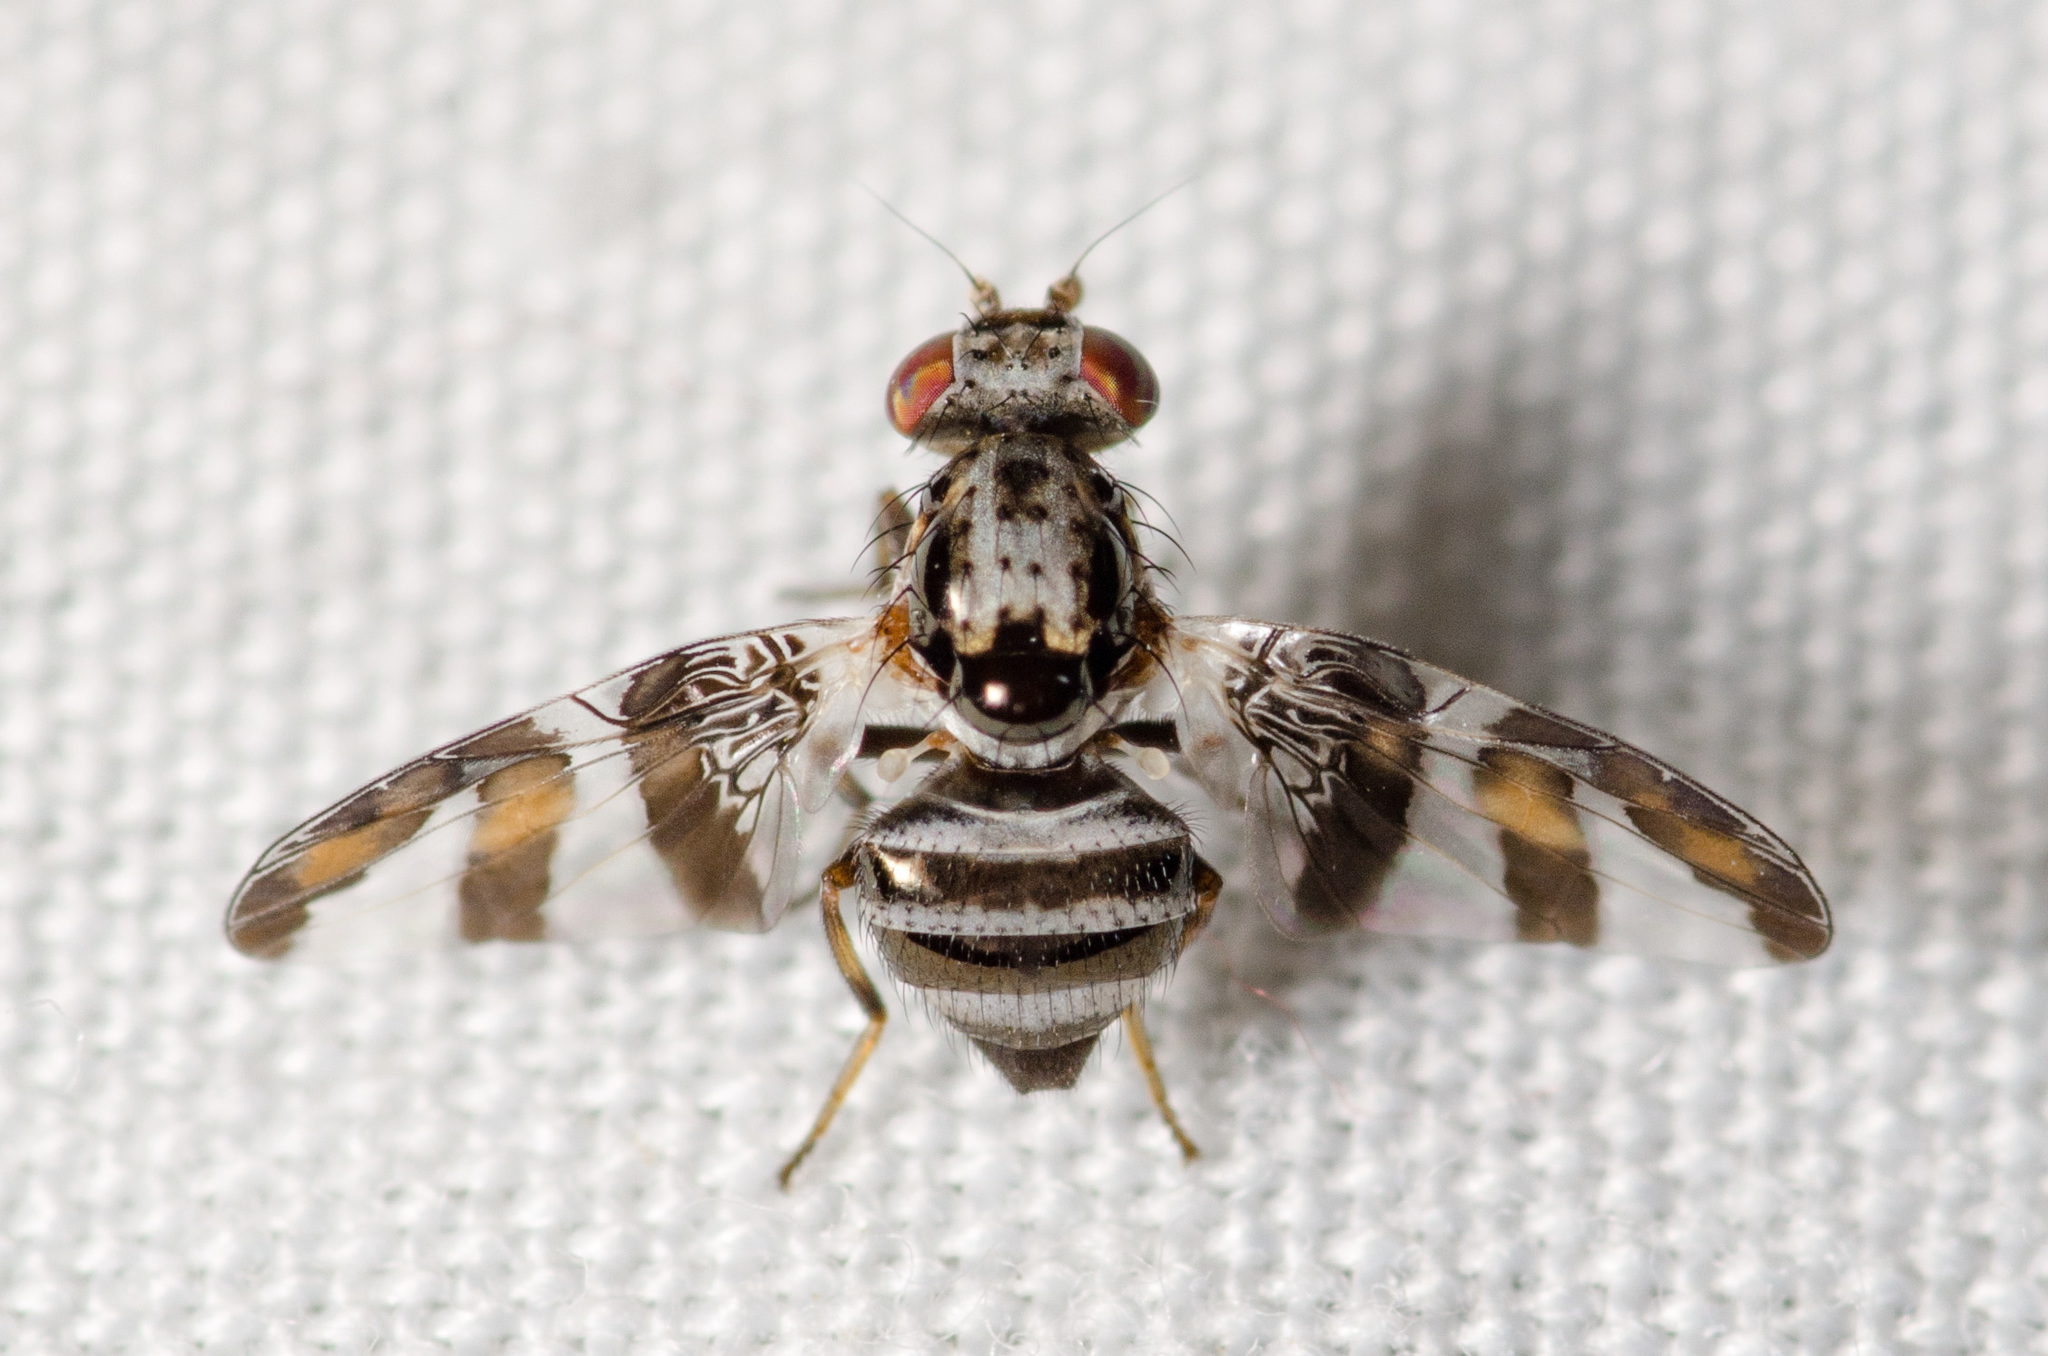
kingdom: Animalia
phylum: Arthropoda
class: Insecta
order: Diptera
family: Ulidiidae
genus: Dyscrasis
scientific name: Dyscrasis hendeli
